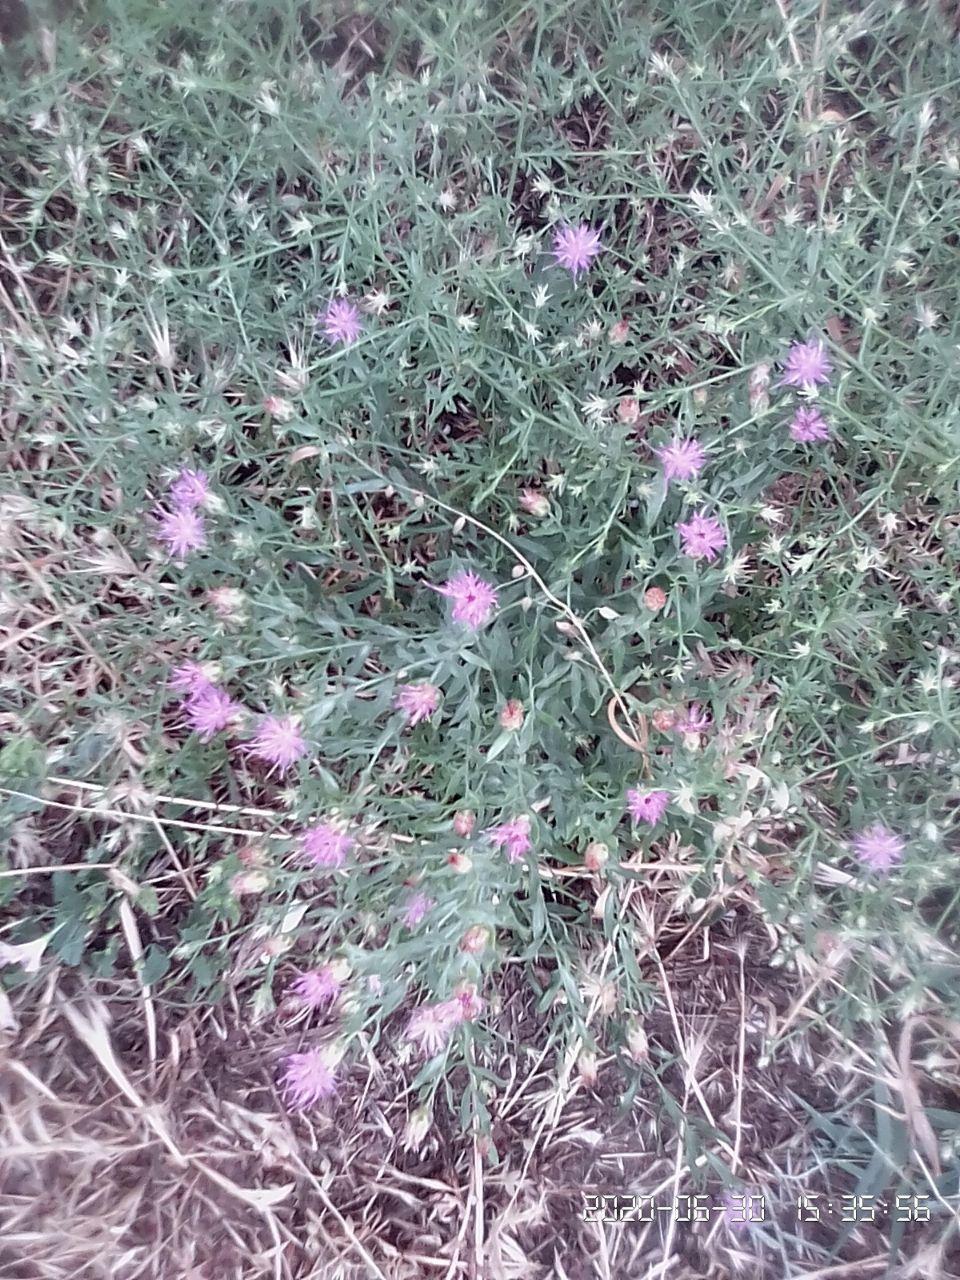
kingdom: Plantae
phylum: Tracheophyta
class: Magnoliopsida
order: Asterales
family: Asteraceae
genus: Leuzea
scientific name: Leuzea repens
